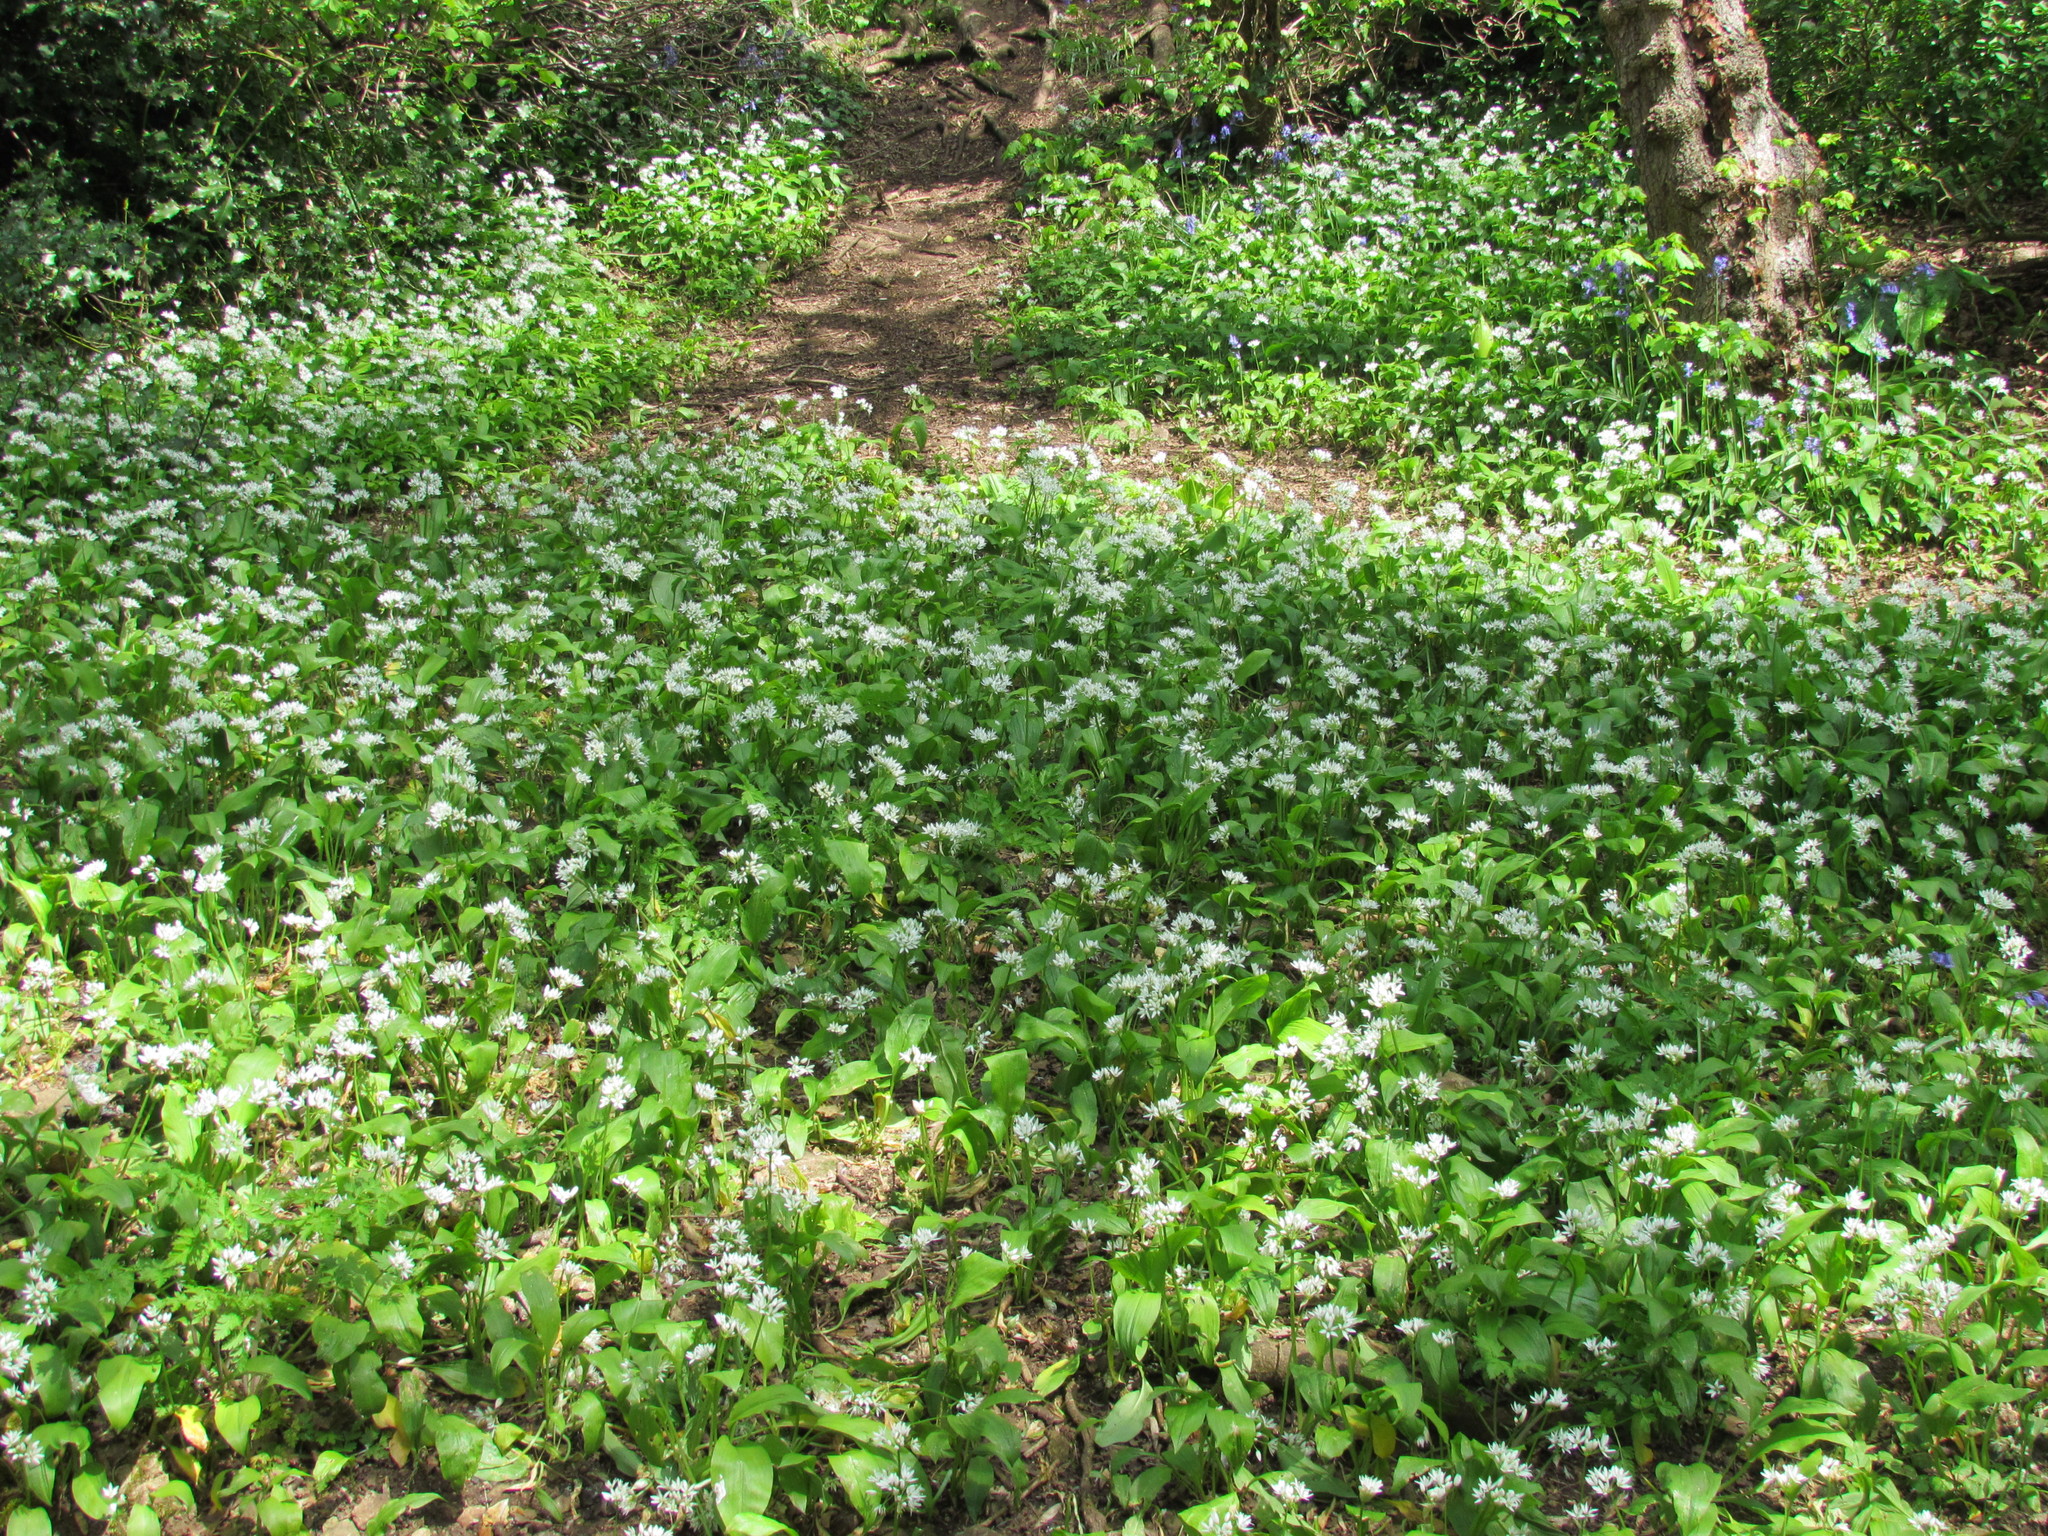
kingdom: Plantae
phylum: Tracheophyta
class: Liliopsida
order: Asparagales
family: Amaryllidaceae
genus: Allium
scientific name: Allium ursinum
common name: Ramsons
